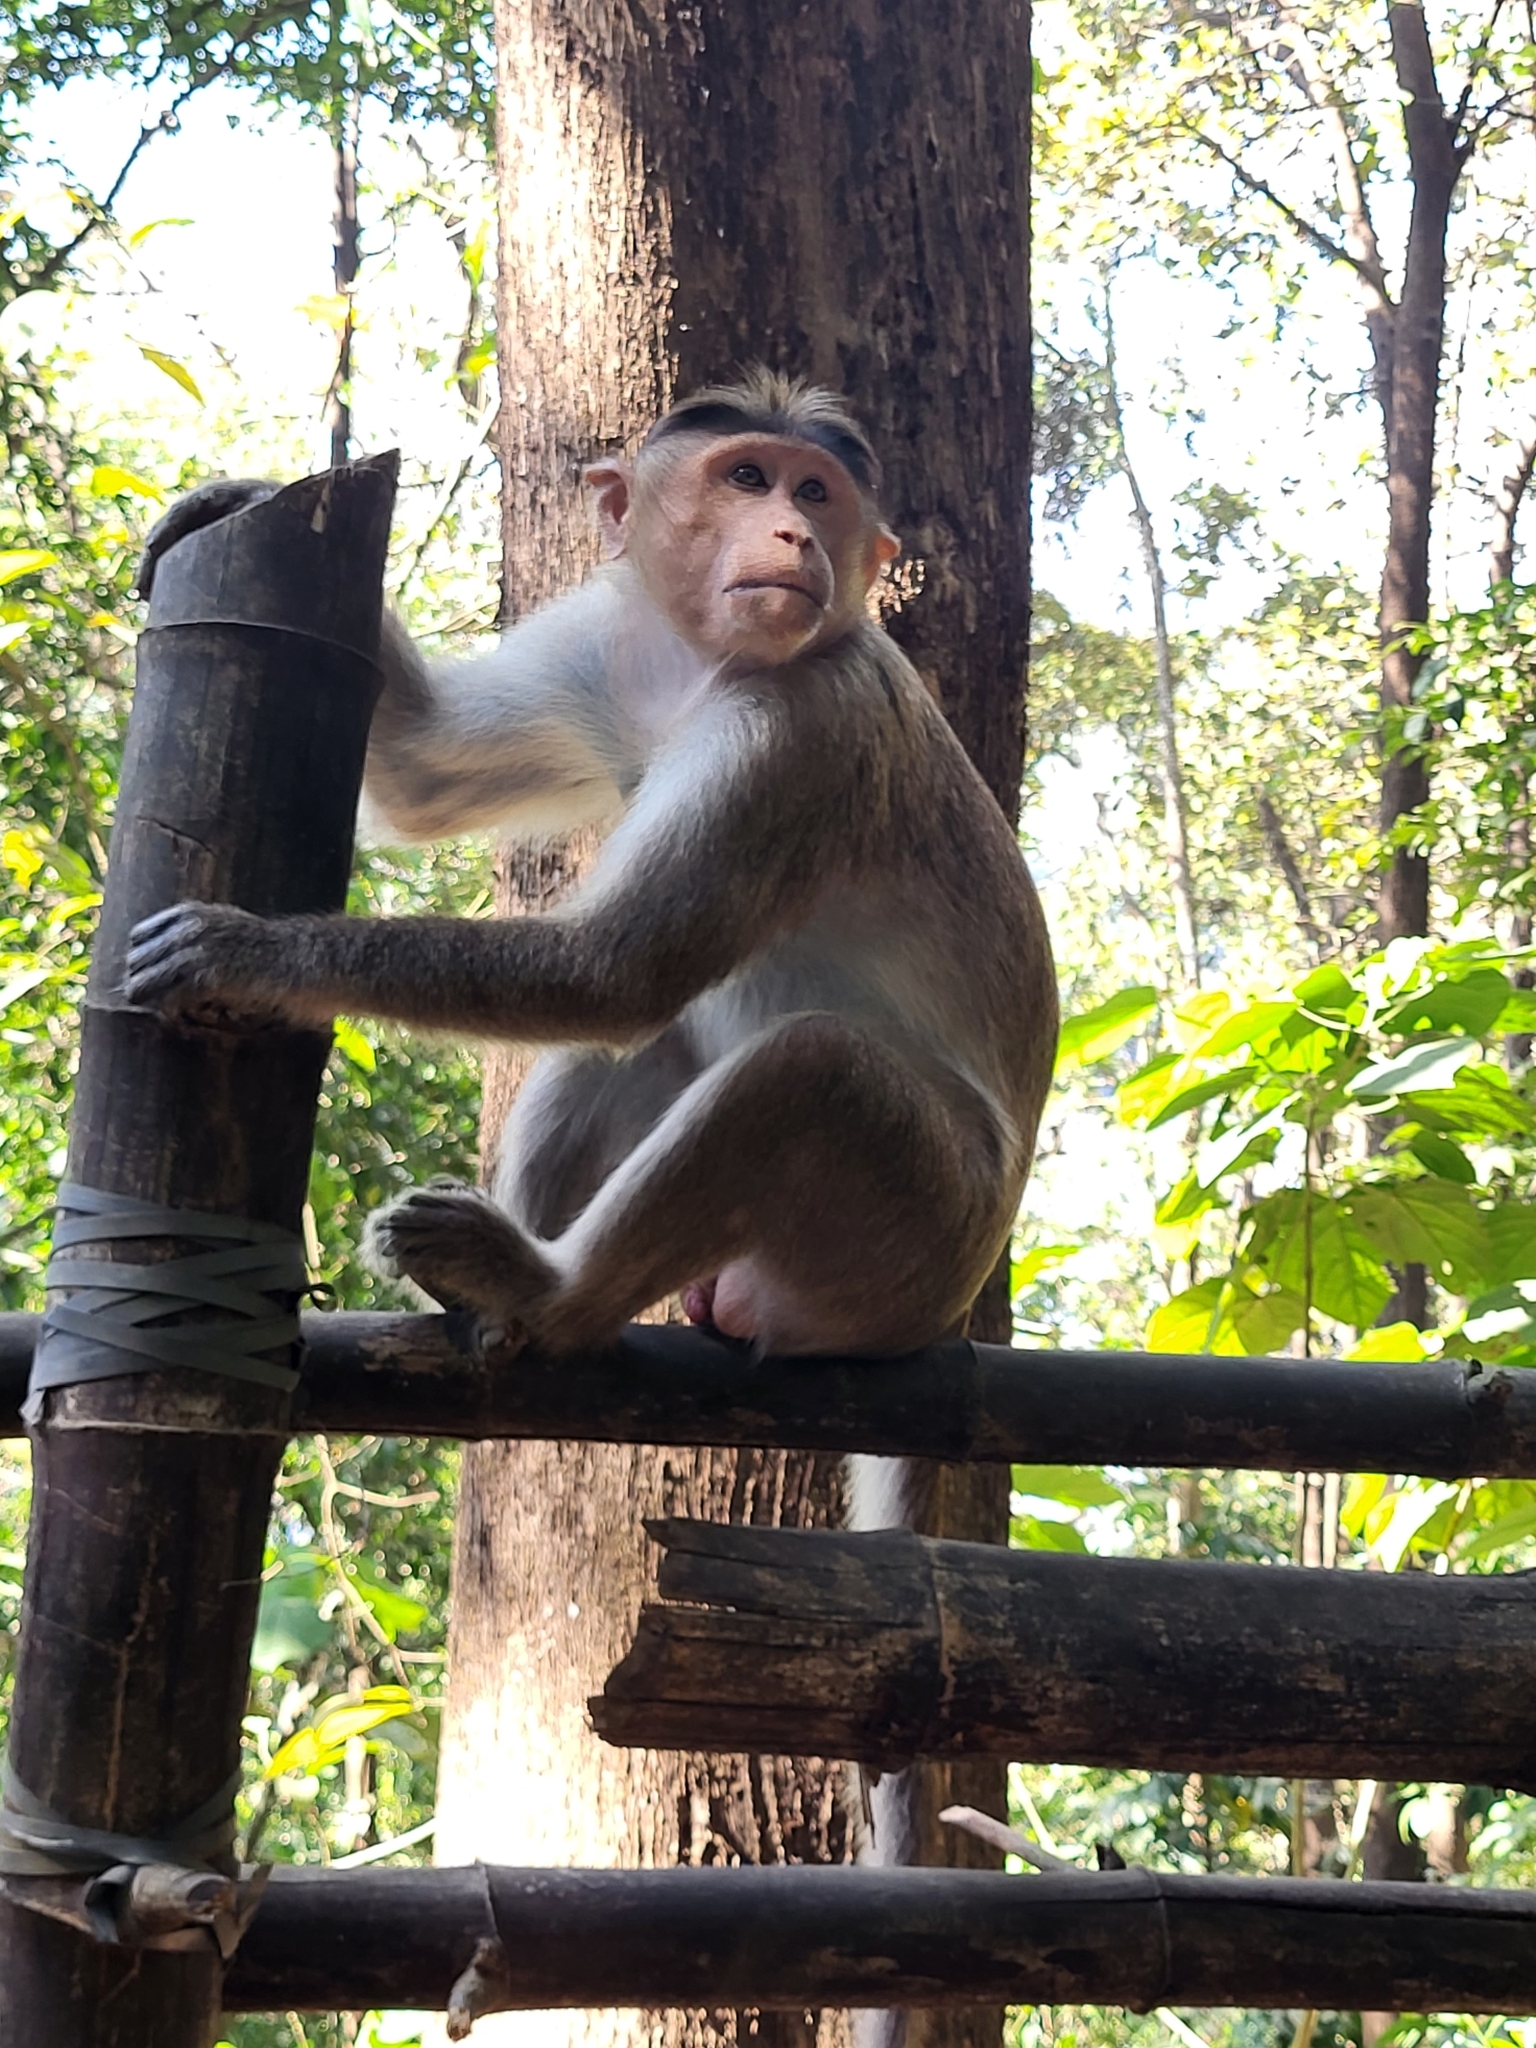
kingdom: Animalia
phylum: Chordata
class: Mammalia
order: Primates
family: Cercopithecidae
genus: Macaca
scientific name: Macaca radiata
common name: Bonnet macaque
